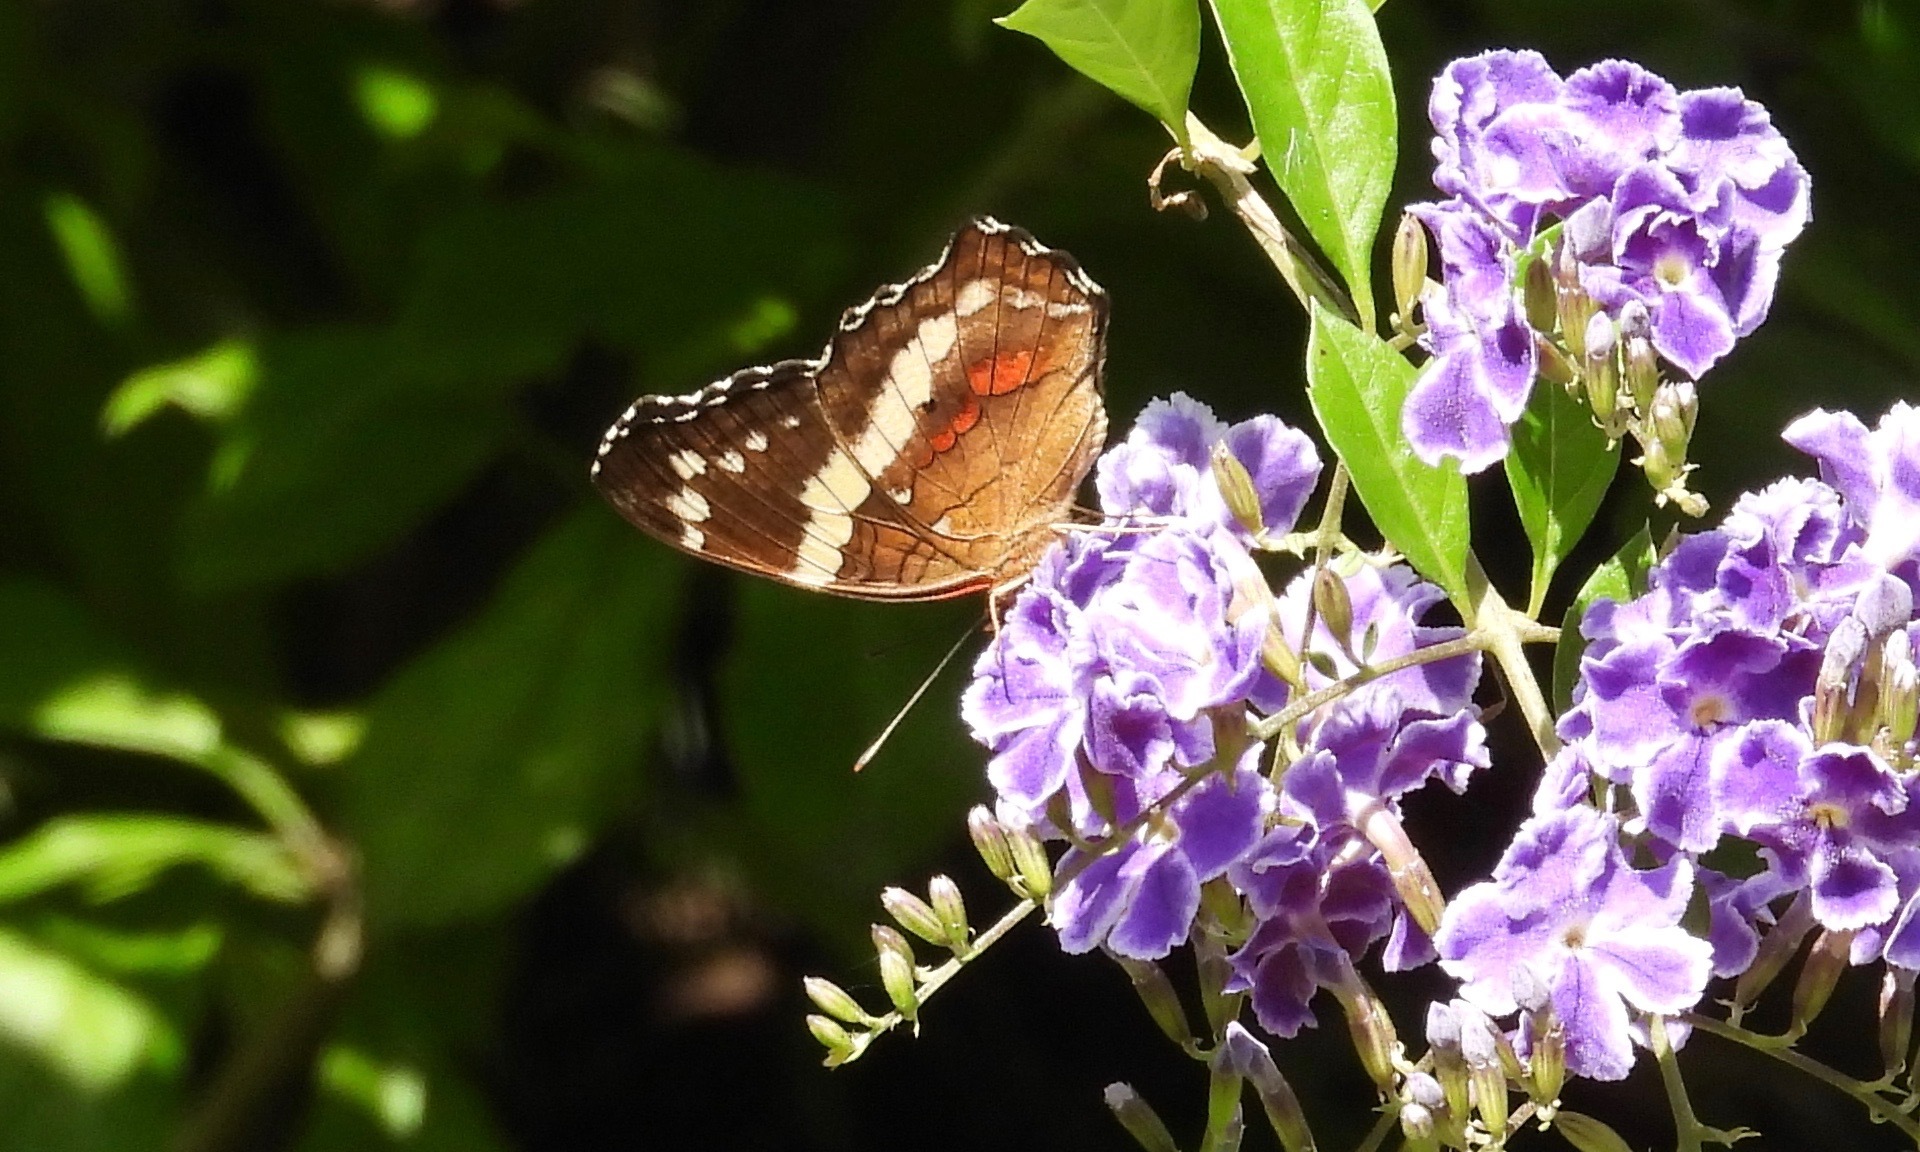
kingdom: Animalia
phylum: Arthropoda
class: Insecta
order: Lepidoptera
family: Nymphalidae
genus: Anartia
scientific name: Anartia fatima
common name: Banded peacock
